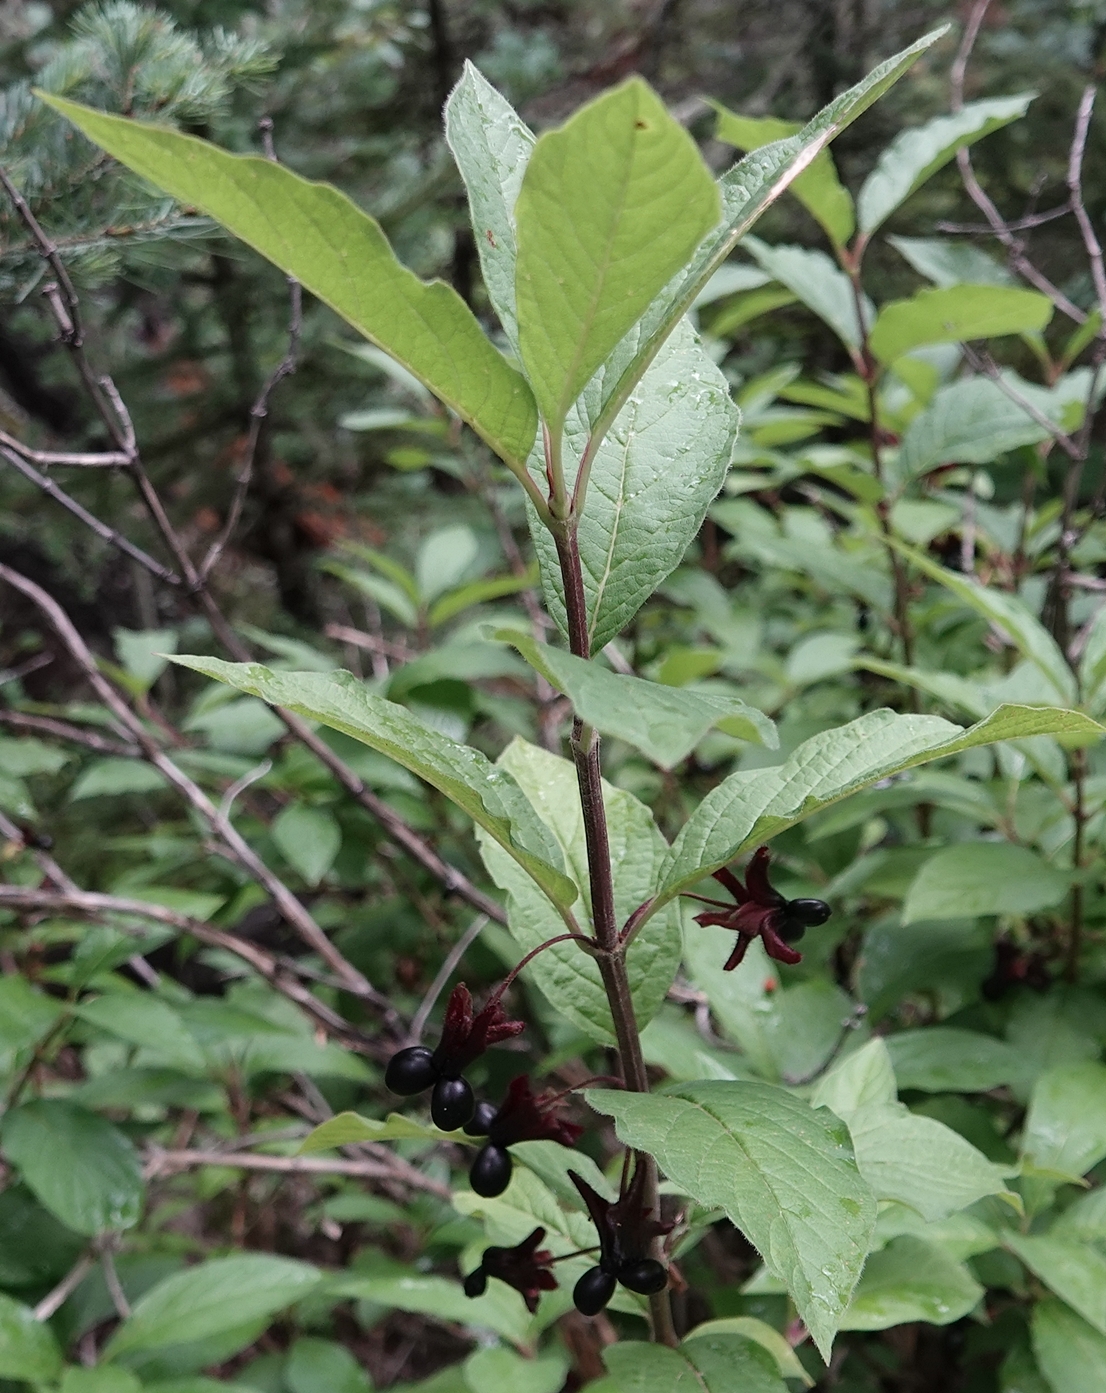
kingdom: Plantae
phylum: Tracheophyta
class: Magnoliopsida
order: Dipsacales
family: Caprifoliaceae
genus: Lonicera
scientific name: Lonicera involucrata
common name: Californian honeysuckle
